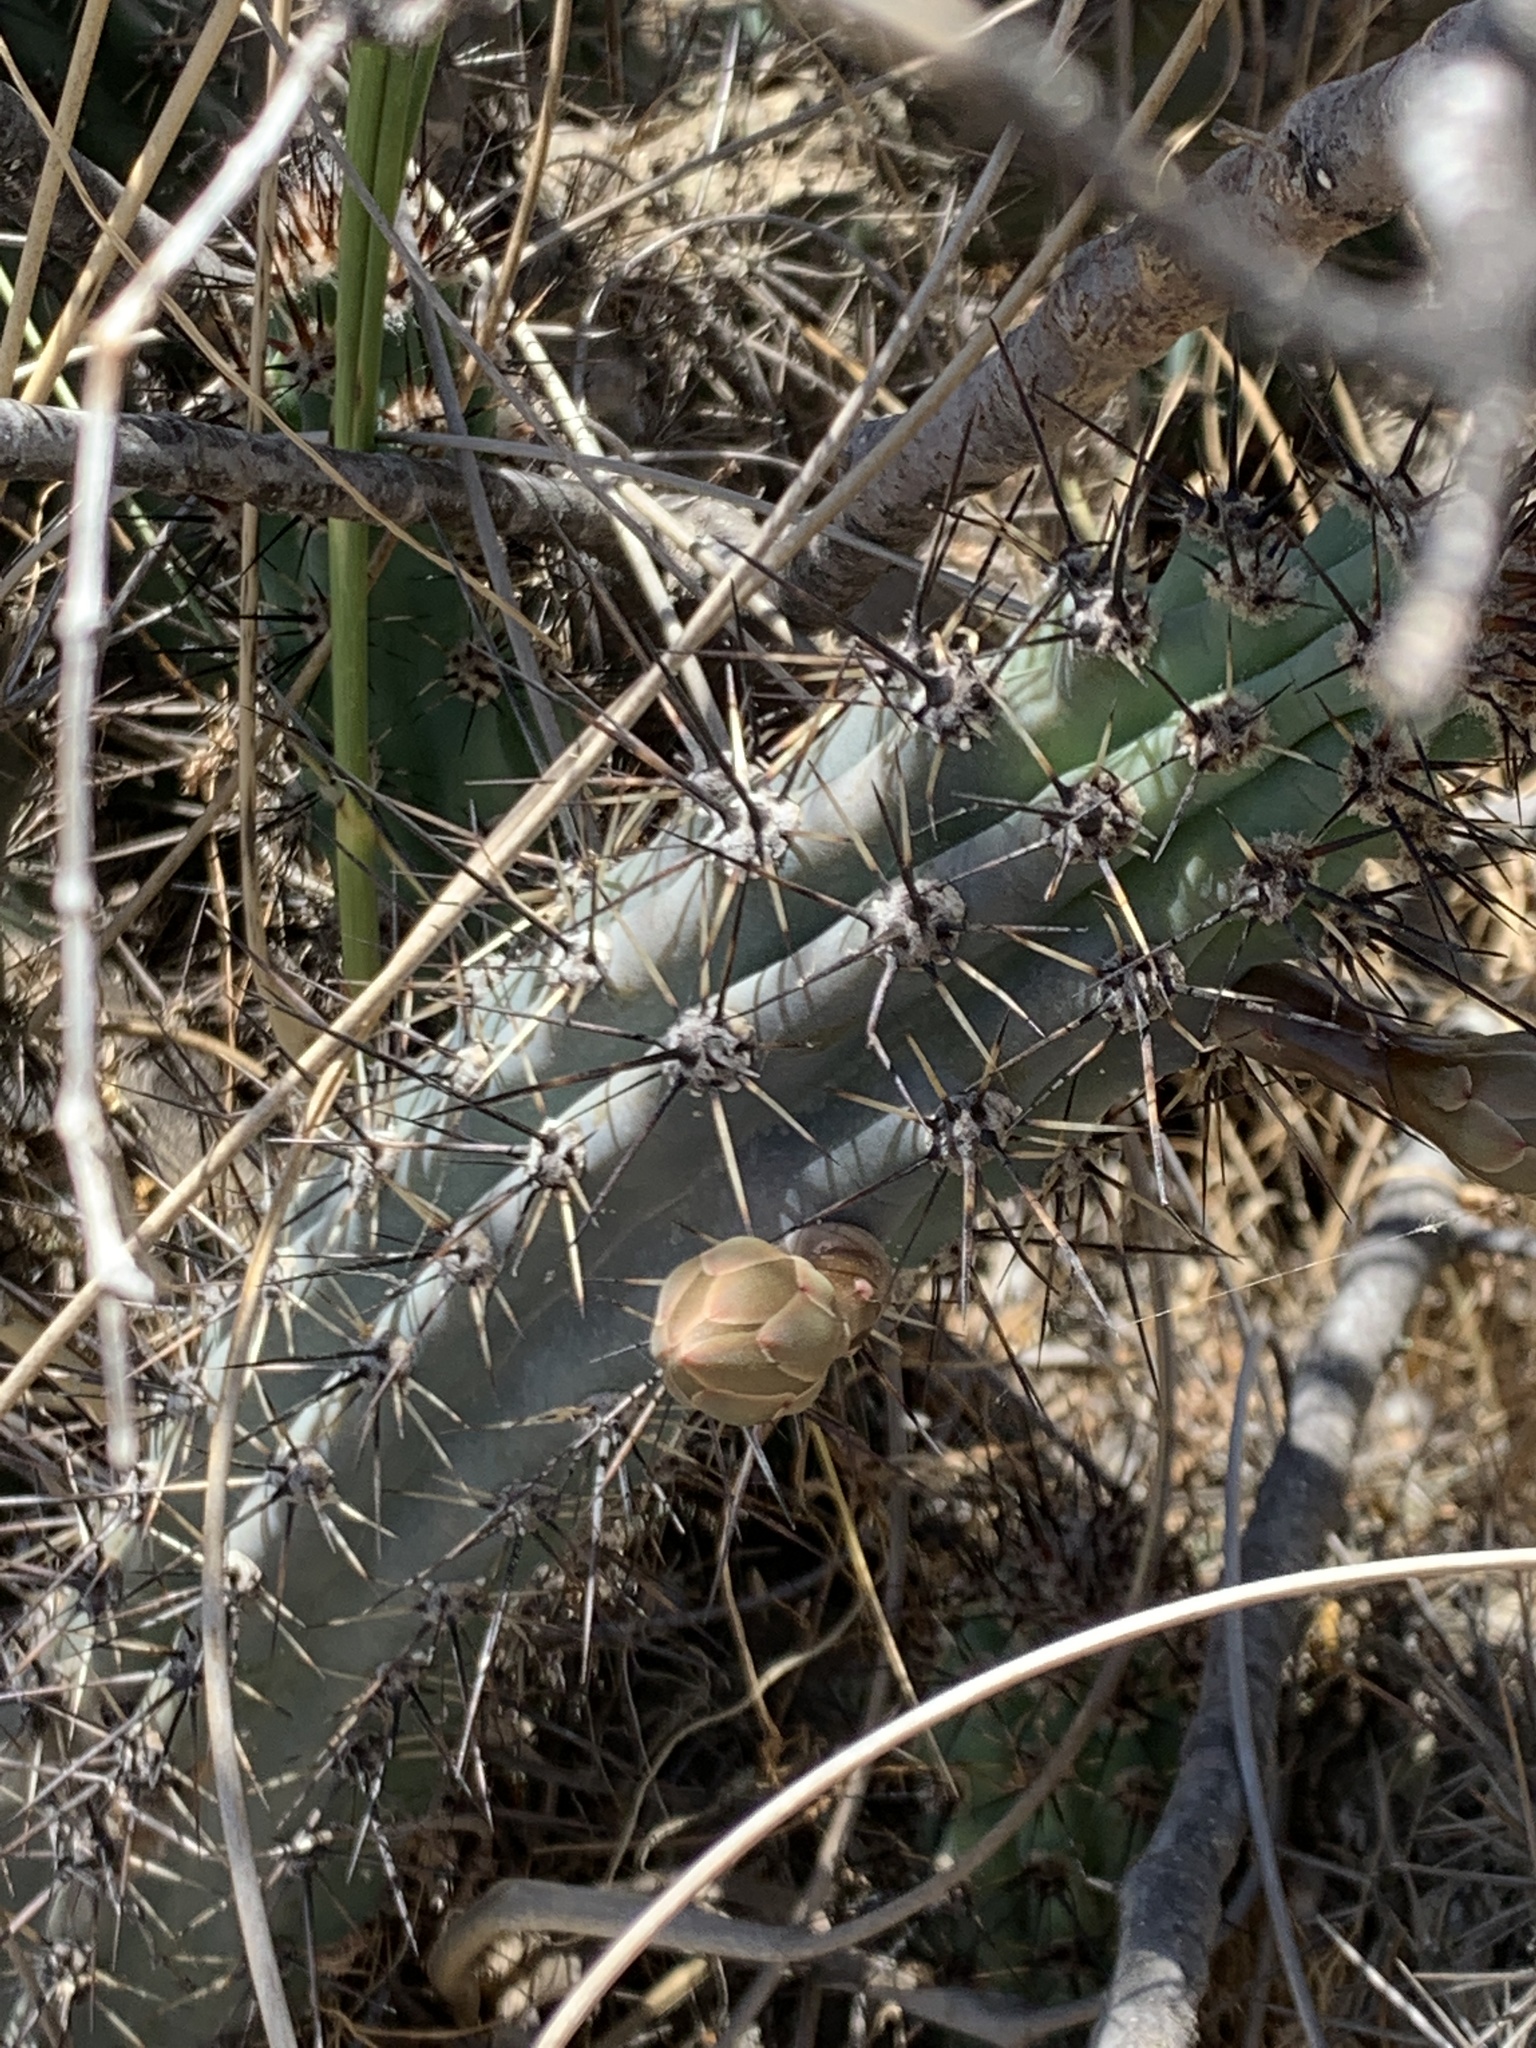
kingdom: Plantae
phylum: Tracheophyta
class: Magnoliopsida
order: Caryophyllales
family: Cactaceae
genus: Cereus
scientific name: Cereus aethiops
